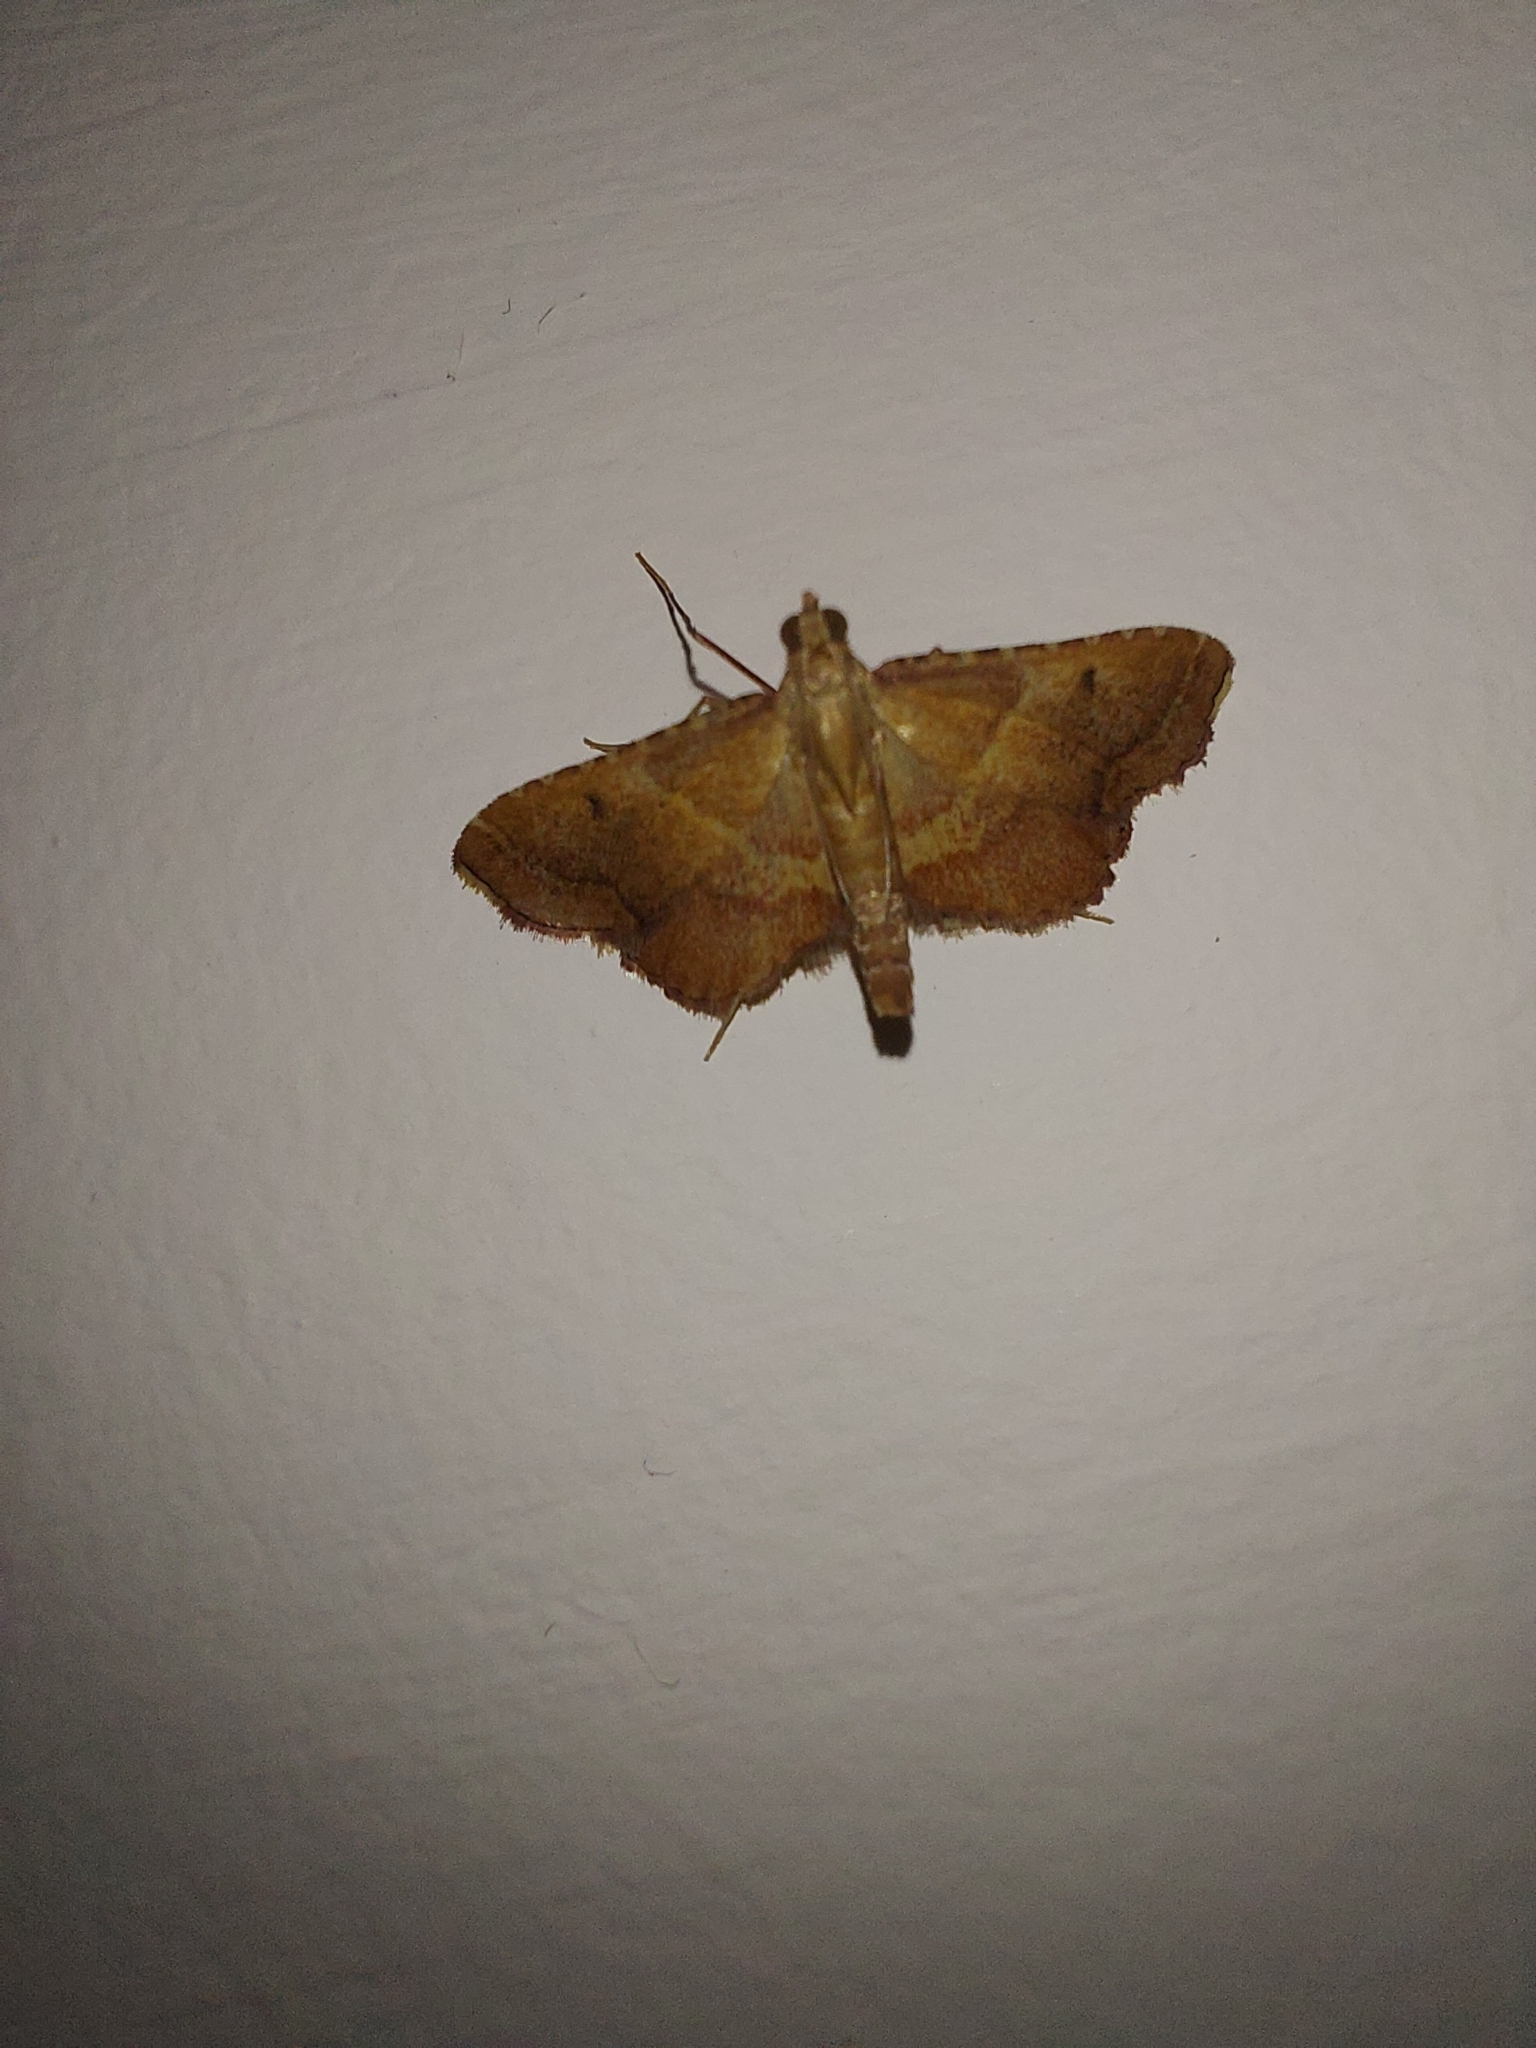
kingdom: Animalia
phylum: Arthropoda
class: Insecta
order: Lepidoptera
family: Pyralidae
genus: Endotricha
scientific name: Endotricha flammealis
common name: Rosy tabby
